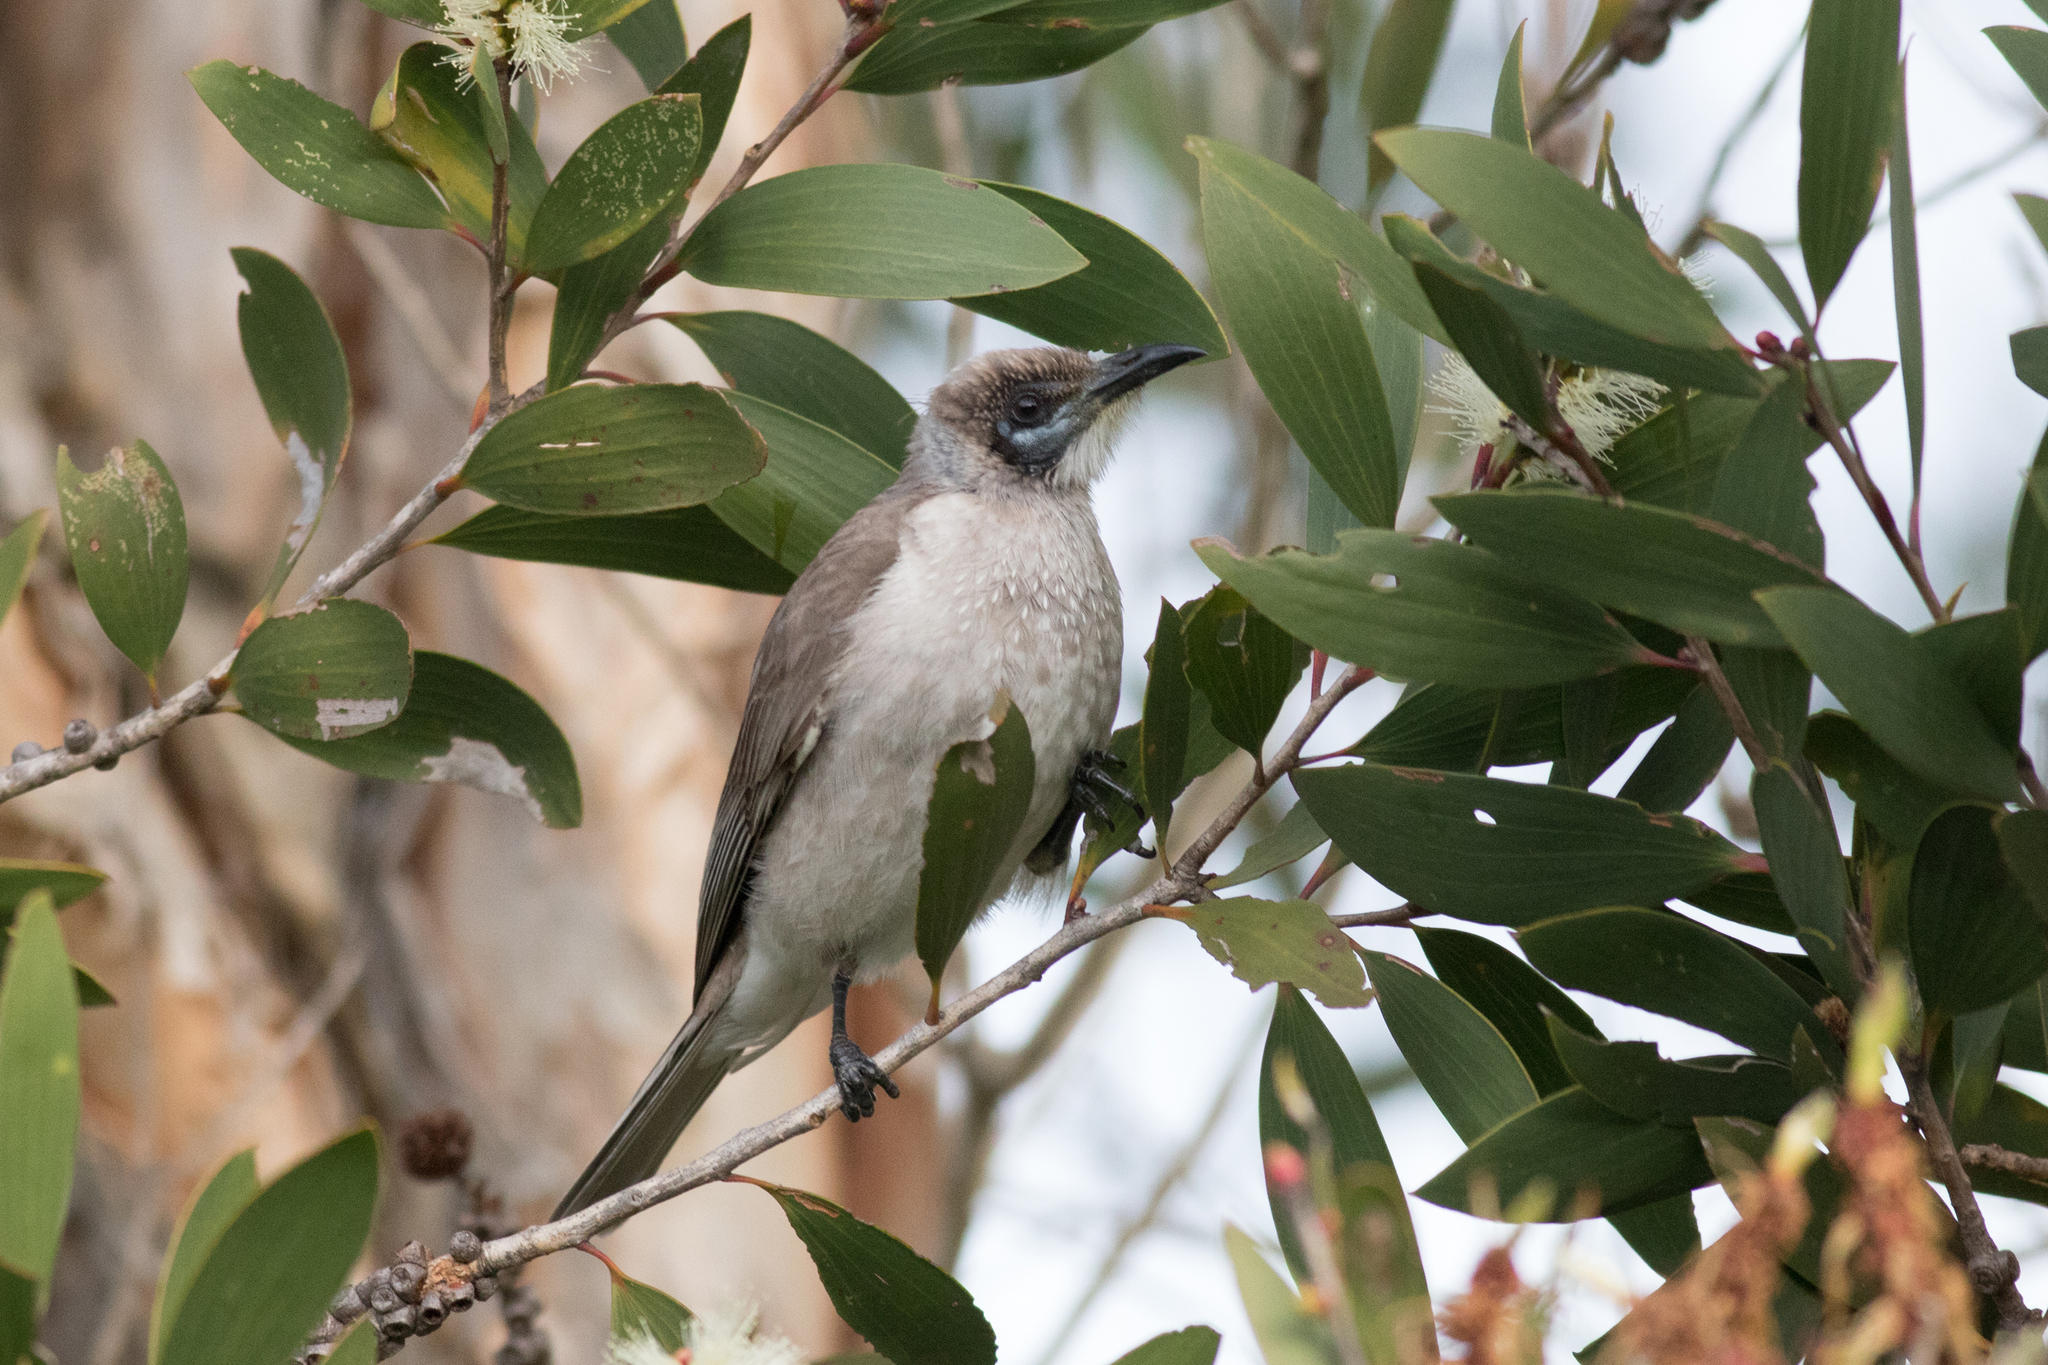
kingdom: Animalia
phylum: Chordata
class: Aves
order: Passeriformes
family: Meliphagidae
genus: Philemon
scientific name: Philemon citreogularis
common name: Little friarbird
